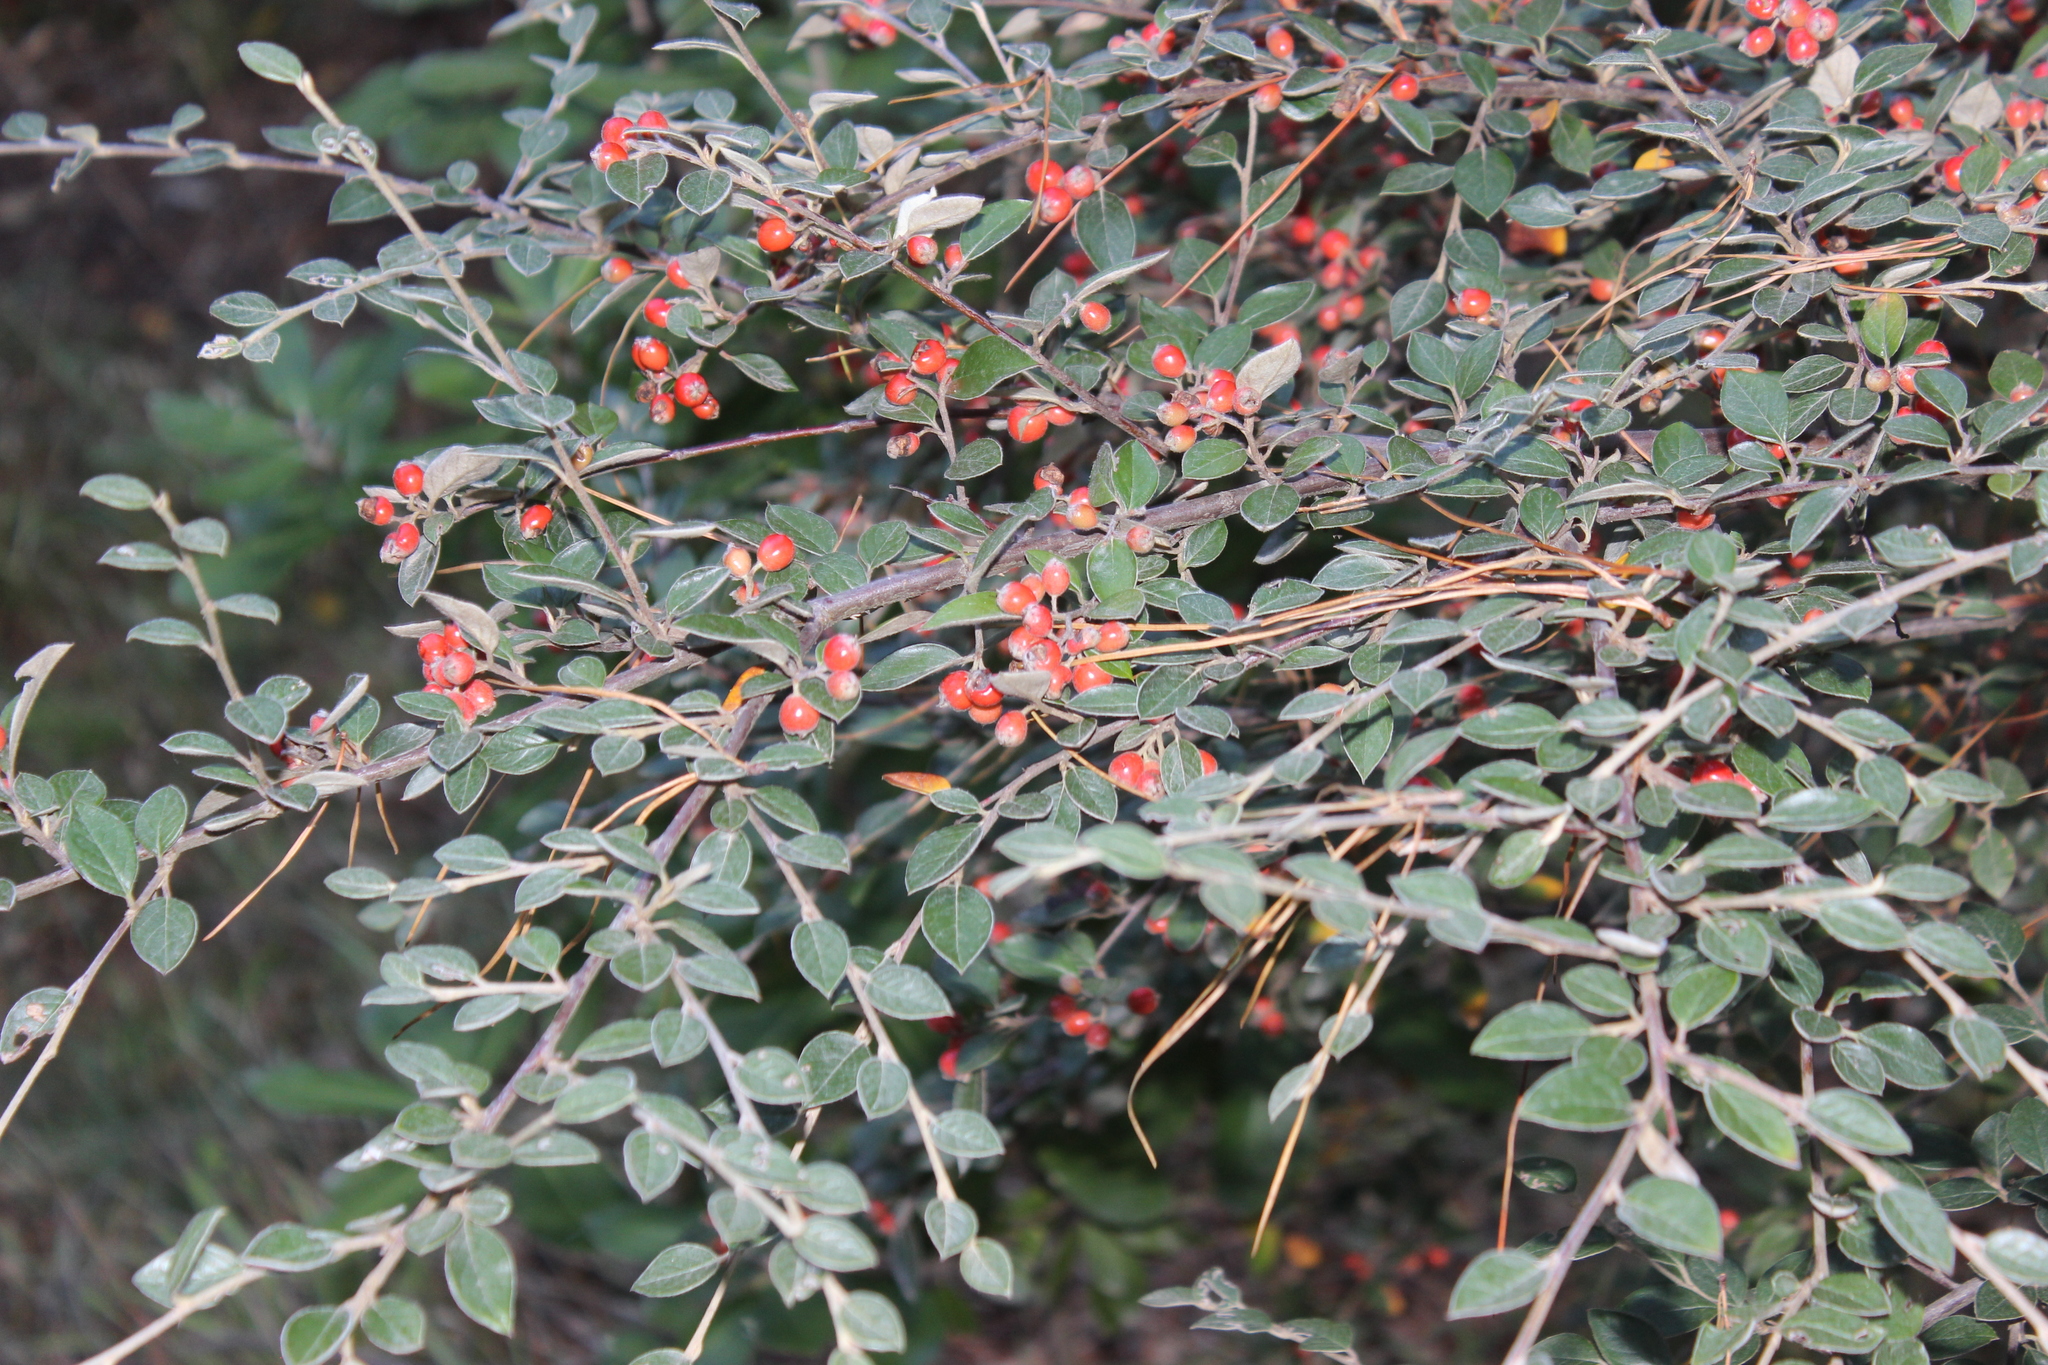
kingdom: Plantae
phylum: Tracheophyta
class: Magnoliopsida
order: Rosales
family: Rosaceae
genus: Cotoneaster
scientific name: Cotoneaster franchetii
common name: Franchet's cotoneaster
